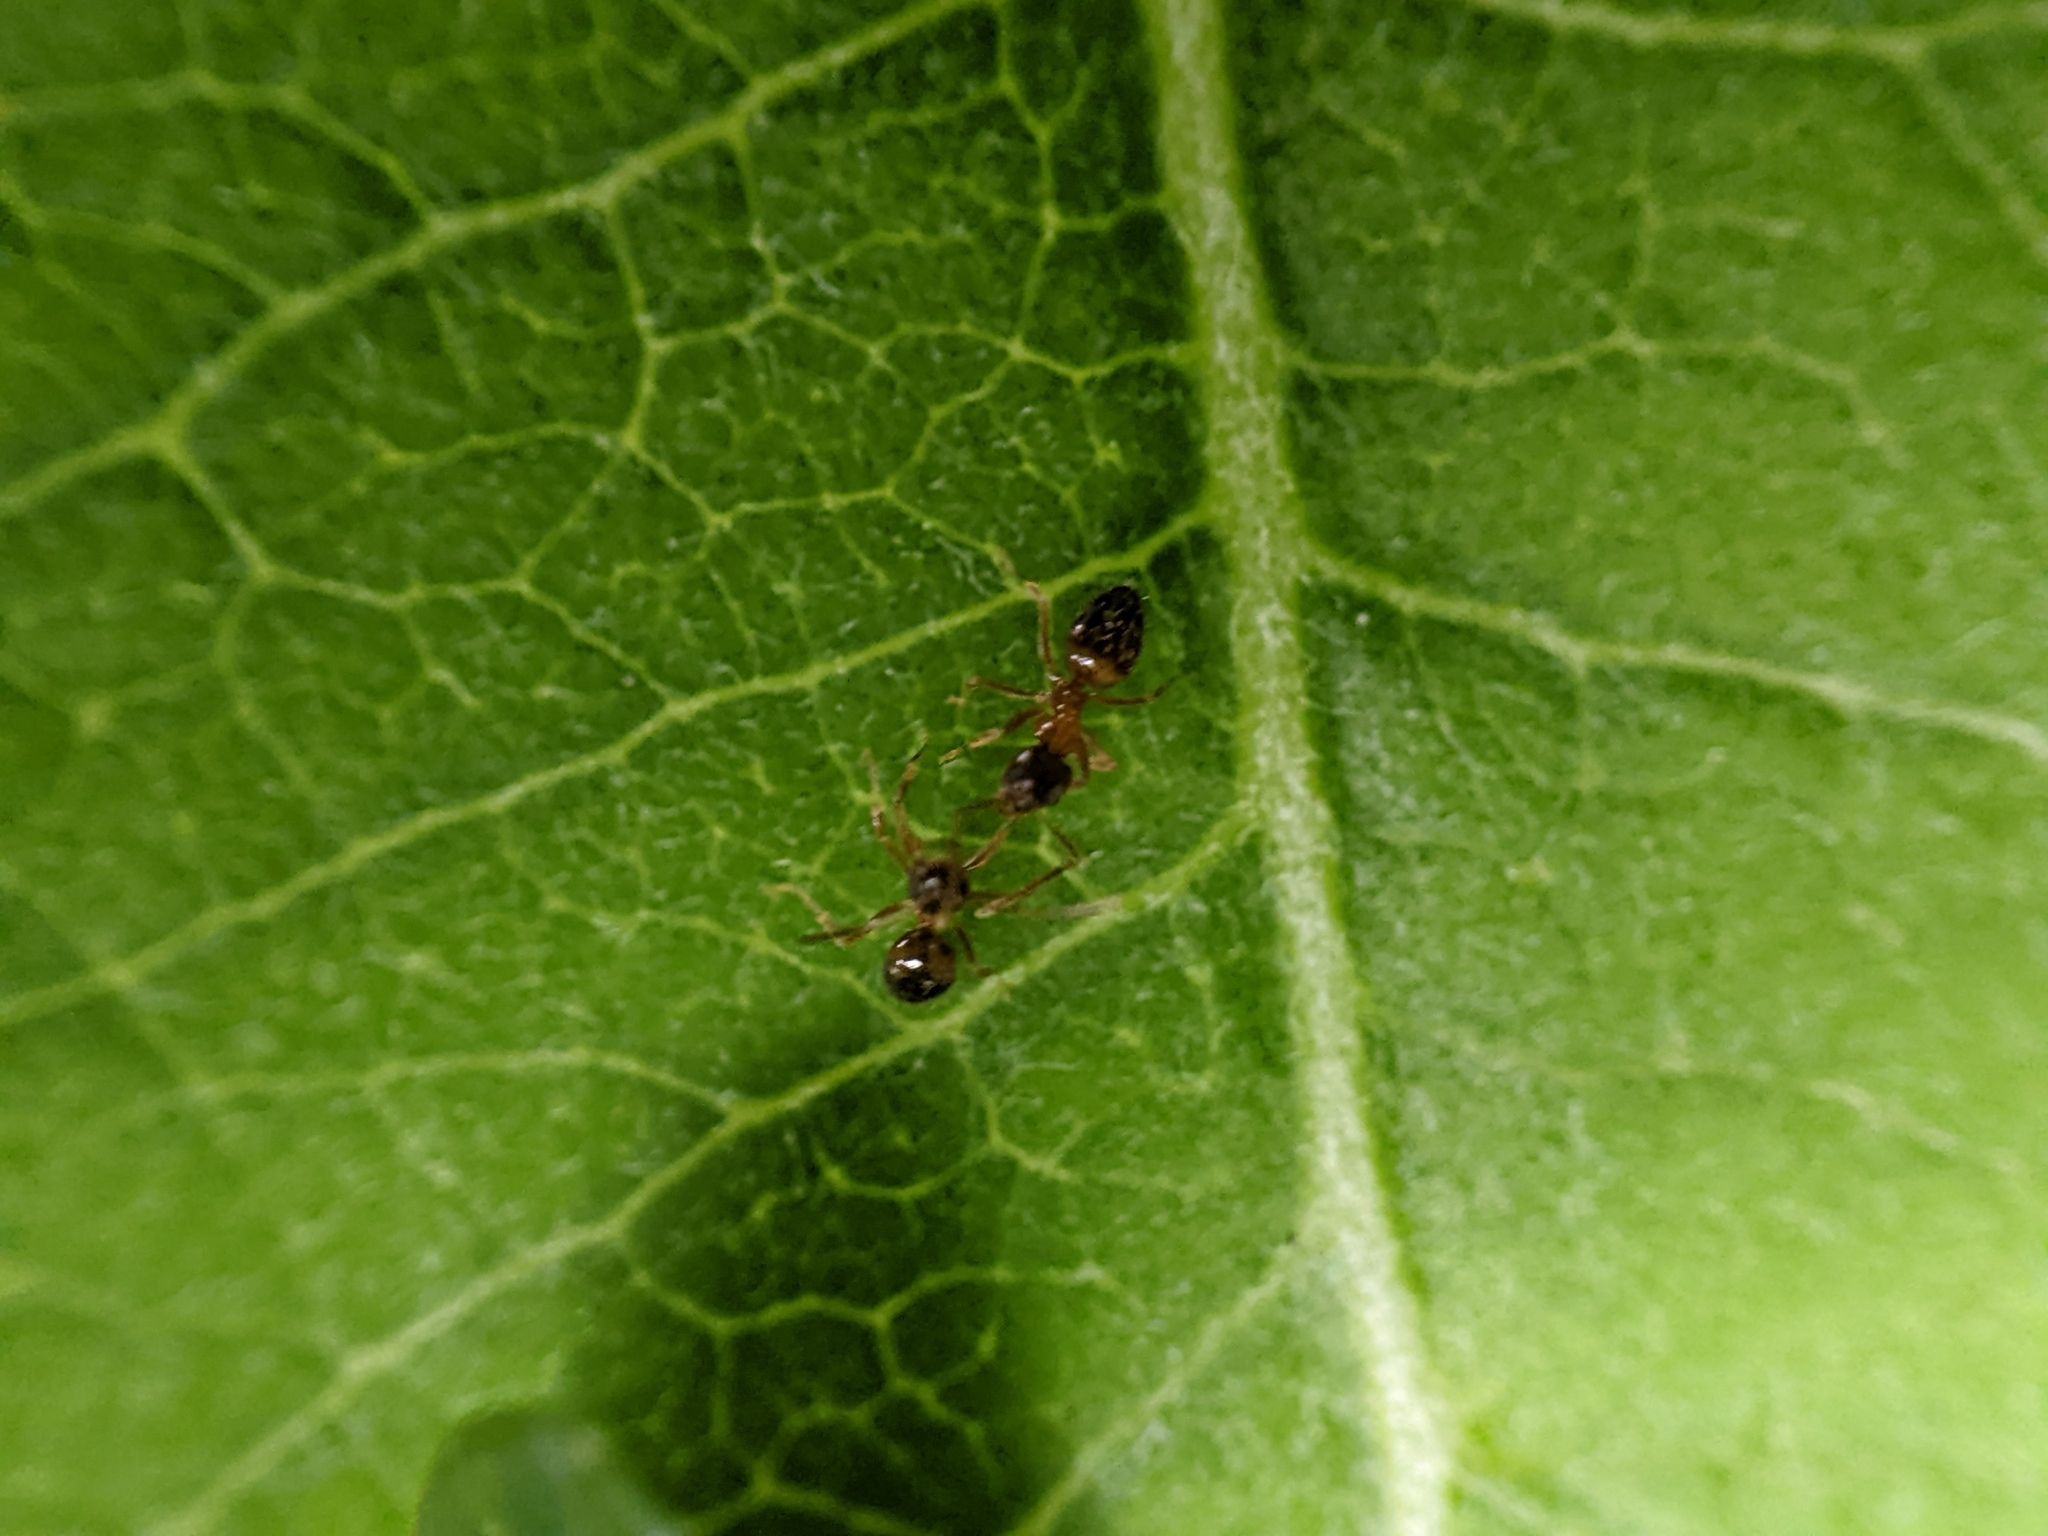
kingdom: Animalia
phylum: Arthropoda
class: Insecta
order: Hymenoptera
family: Formicidae
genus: Paratrechina
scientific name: Paratrechina flavipes
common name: Eastern asian formicine ant
